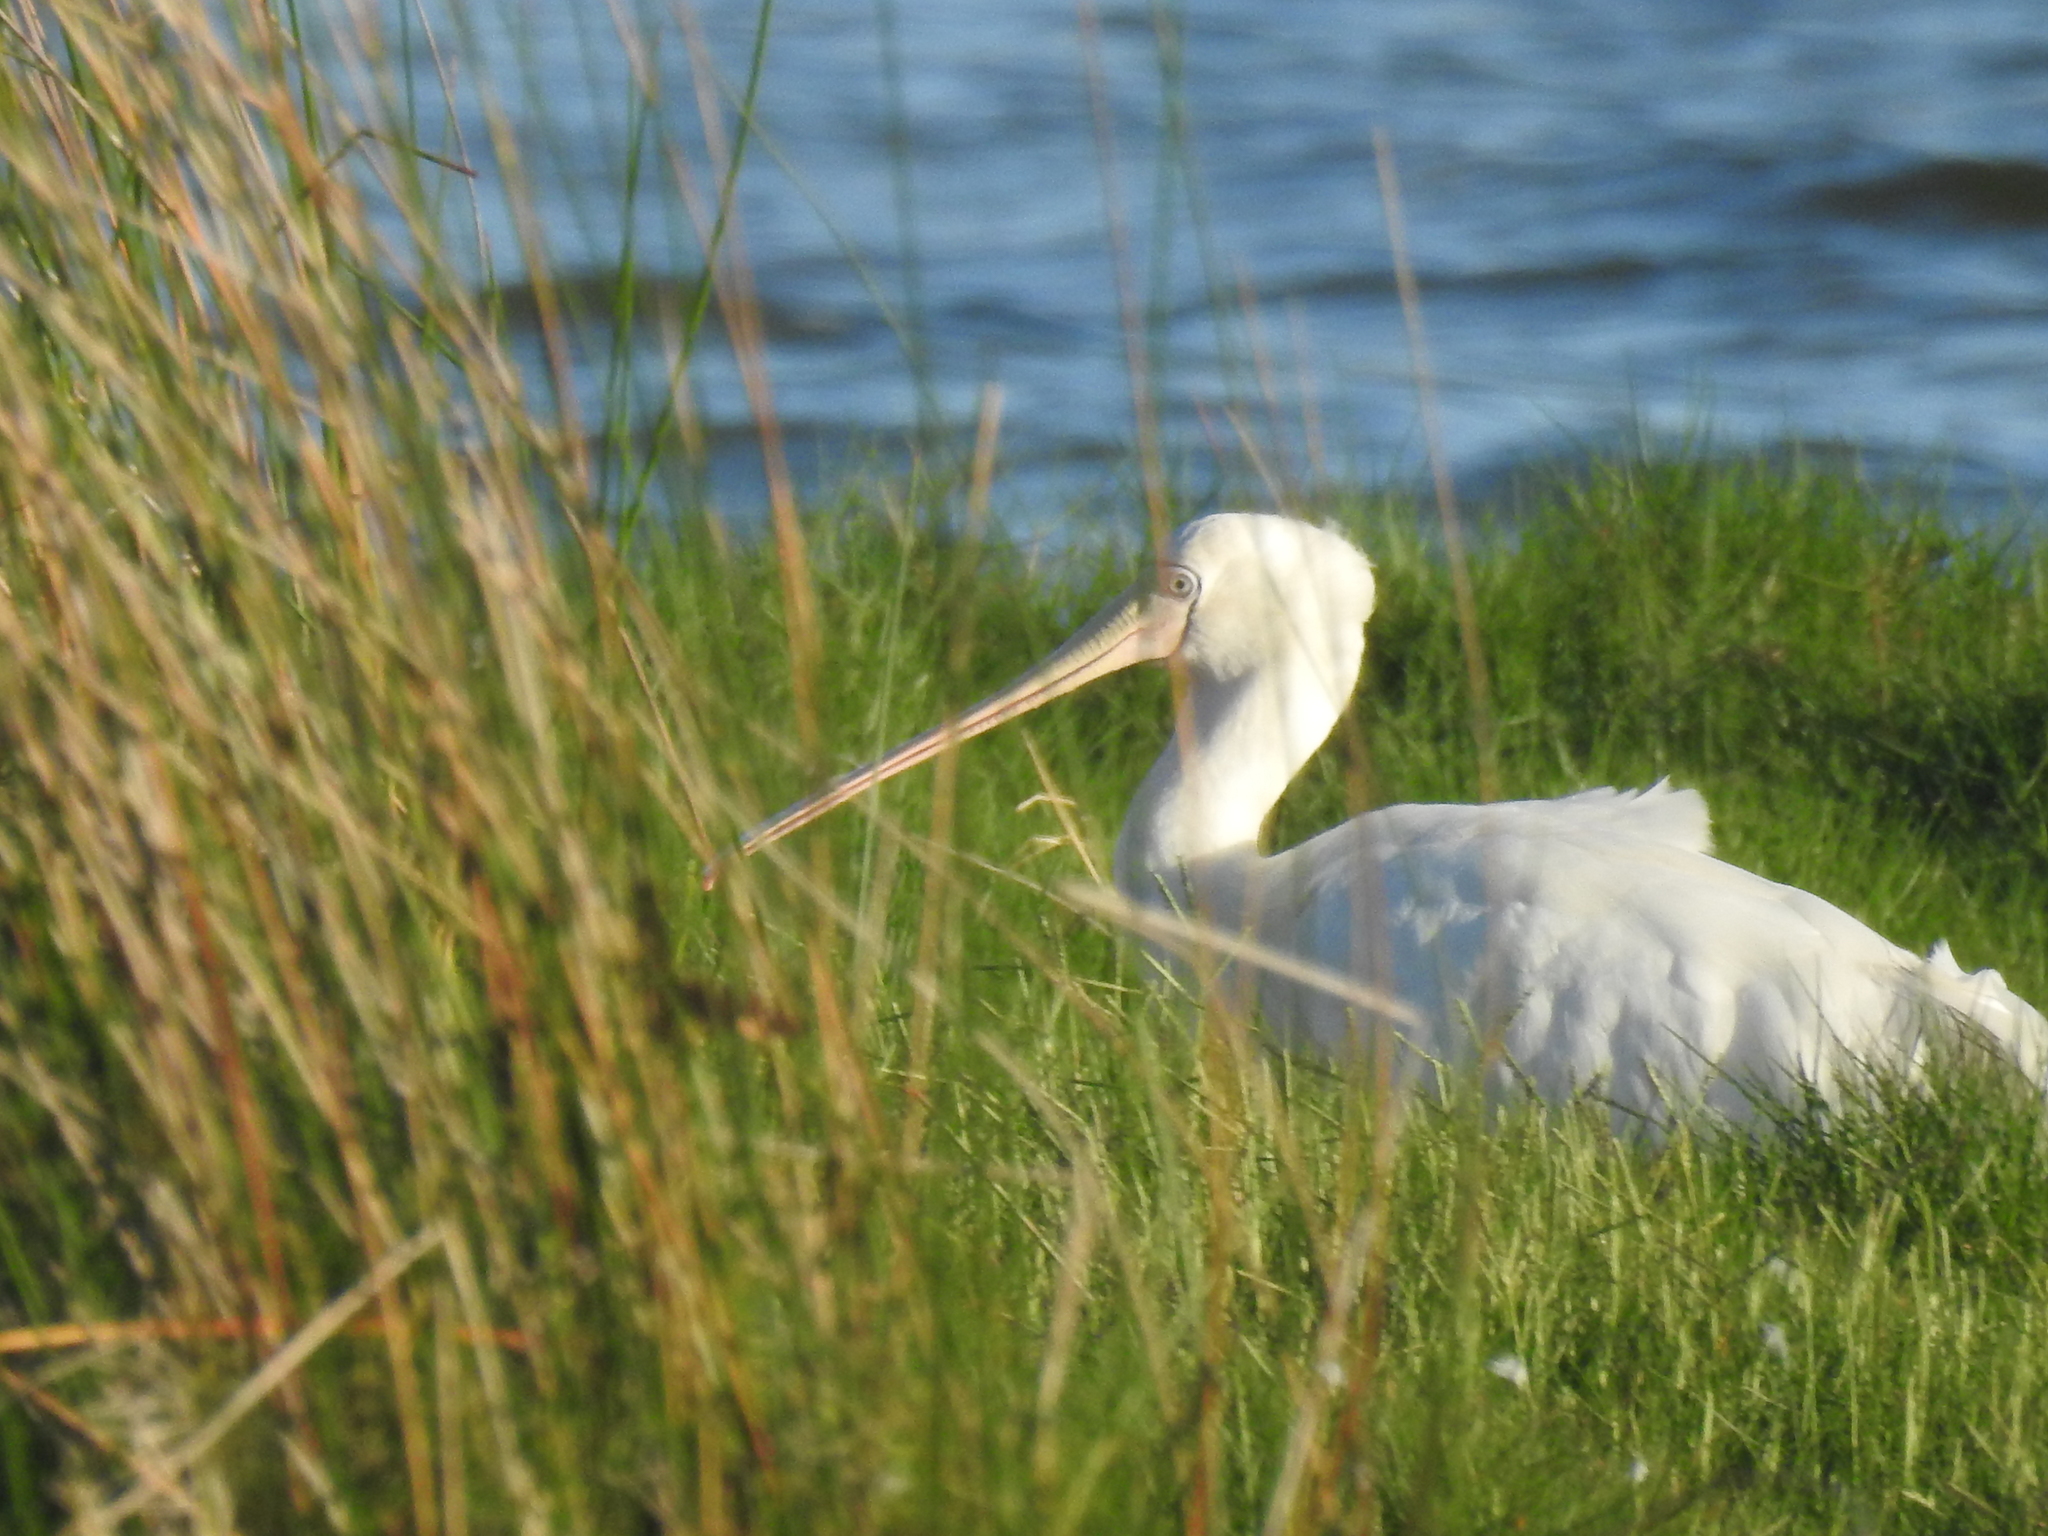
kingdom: Animalia
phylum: Chordata
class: Aves
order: Pelecaniformes
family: Threskiornithidae
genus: Platalea
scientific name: Platalea flavipes
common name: Yellow-billed spoonbill
